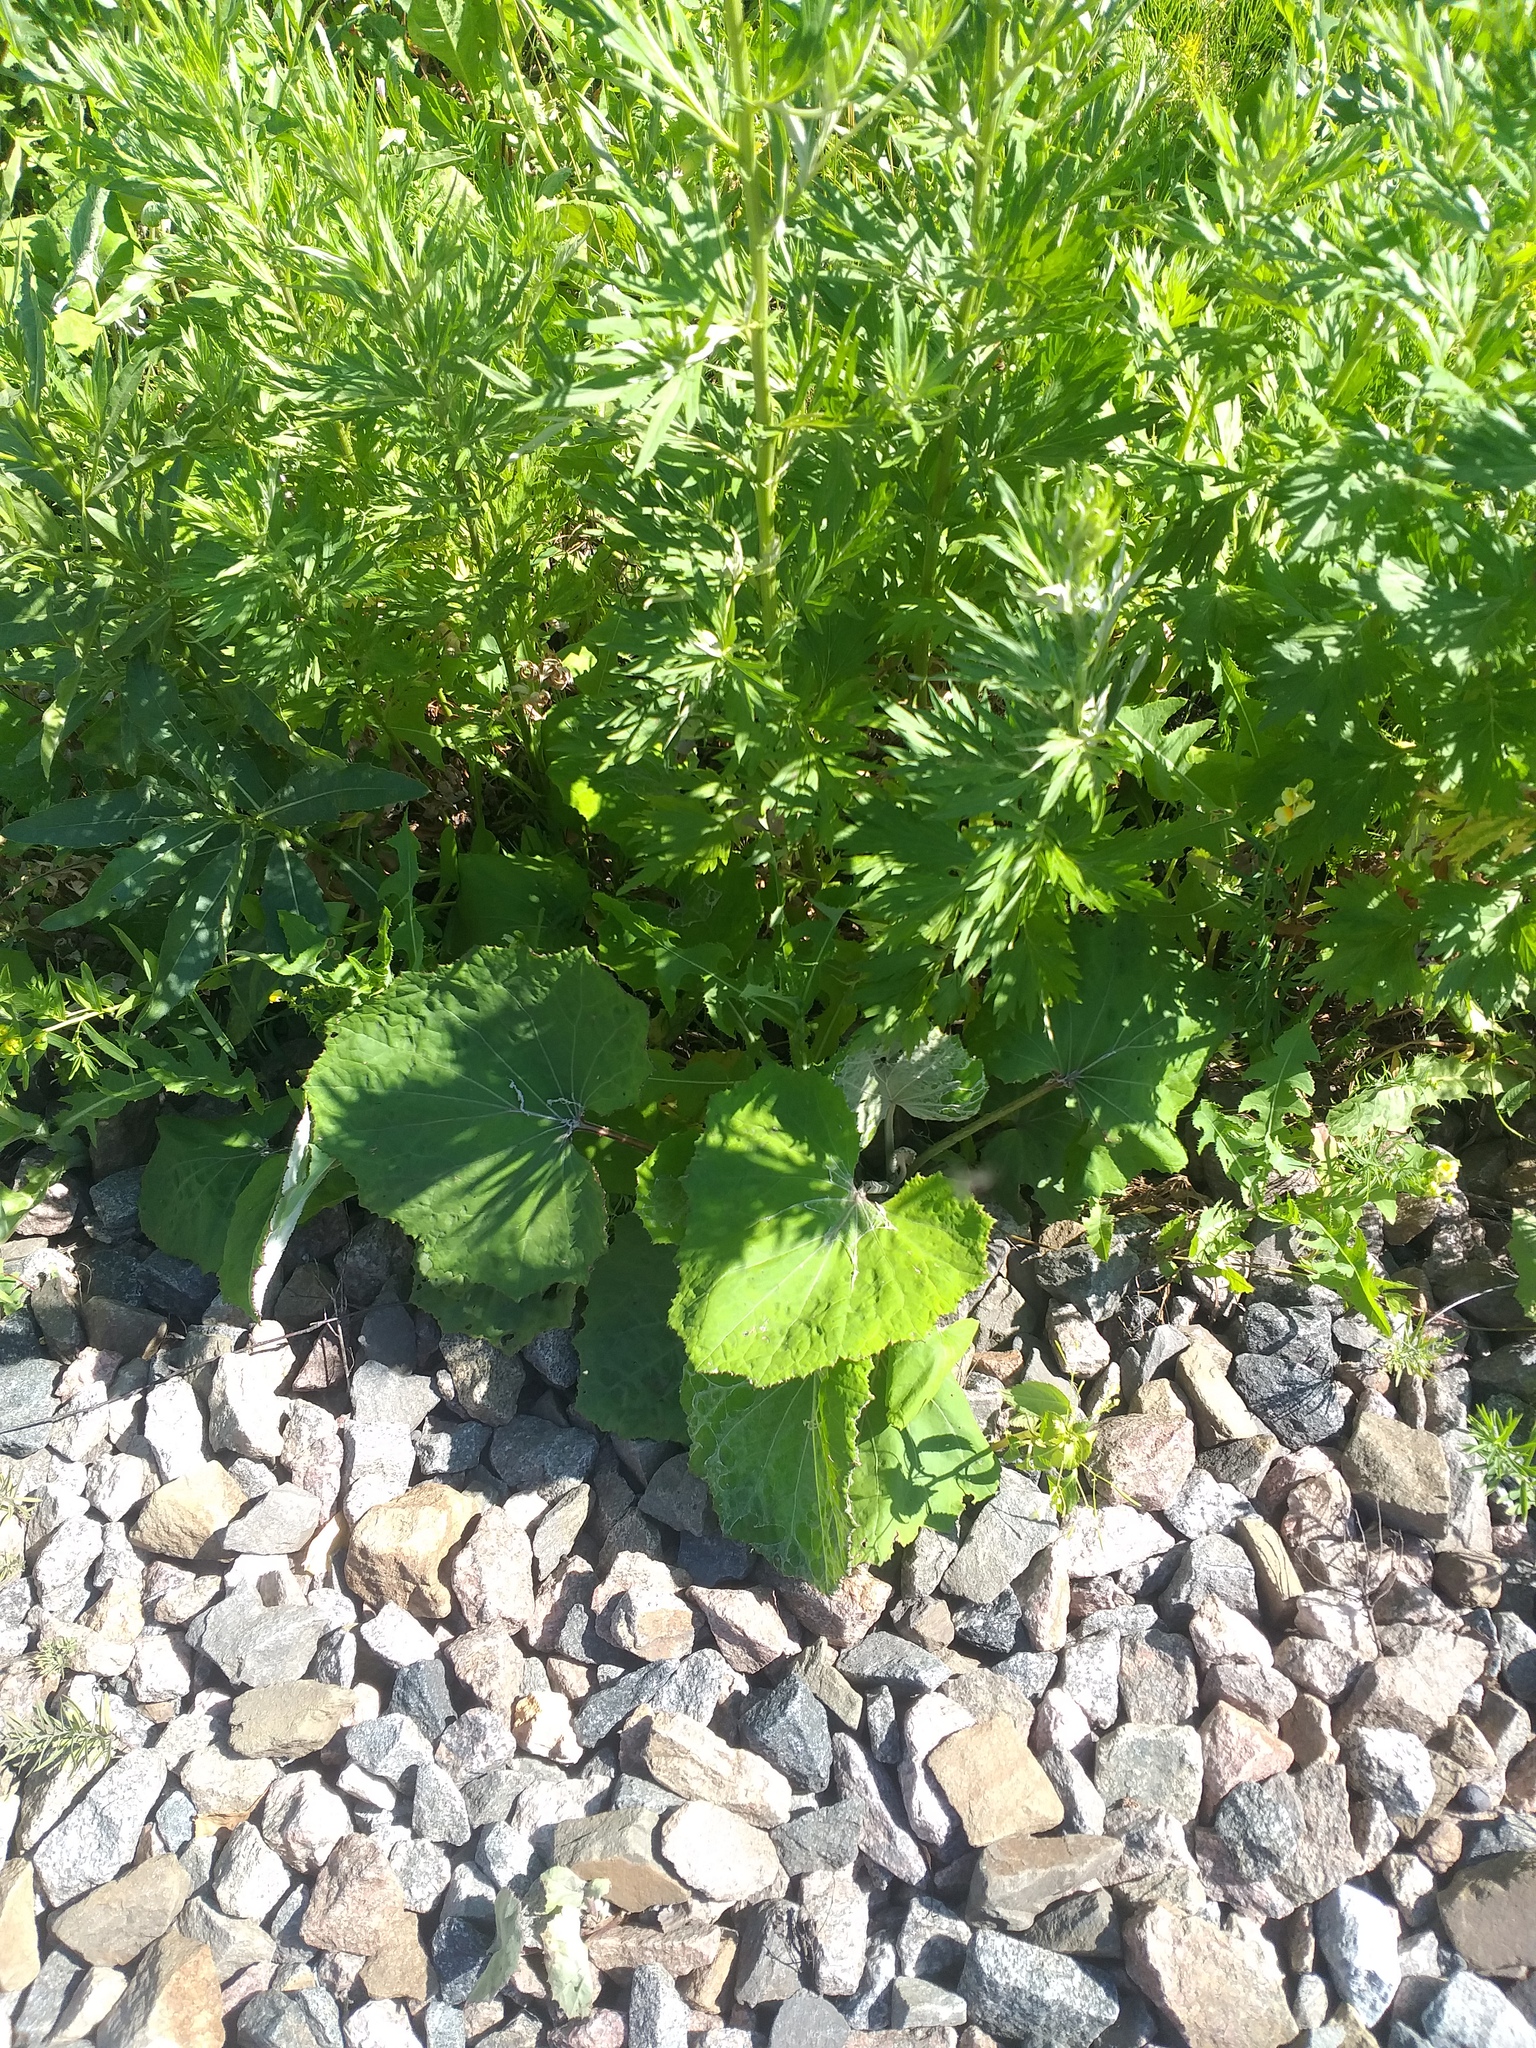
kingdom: Plantae
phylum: Tracheophyta
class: Magnoliopsida
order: Asterales
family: Asteraceae
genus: Tussilago
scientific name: Tussilago farfara
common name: Coltsfoot
